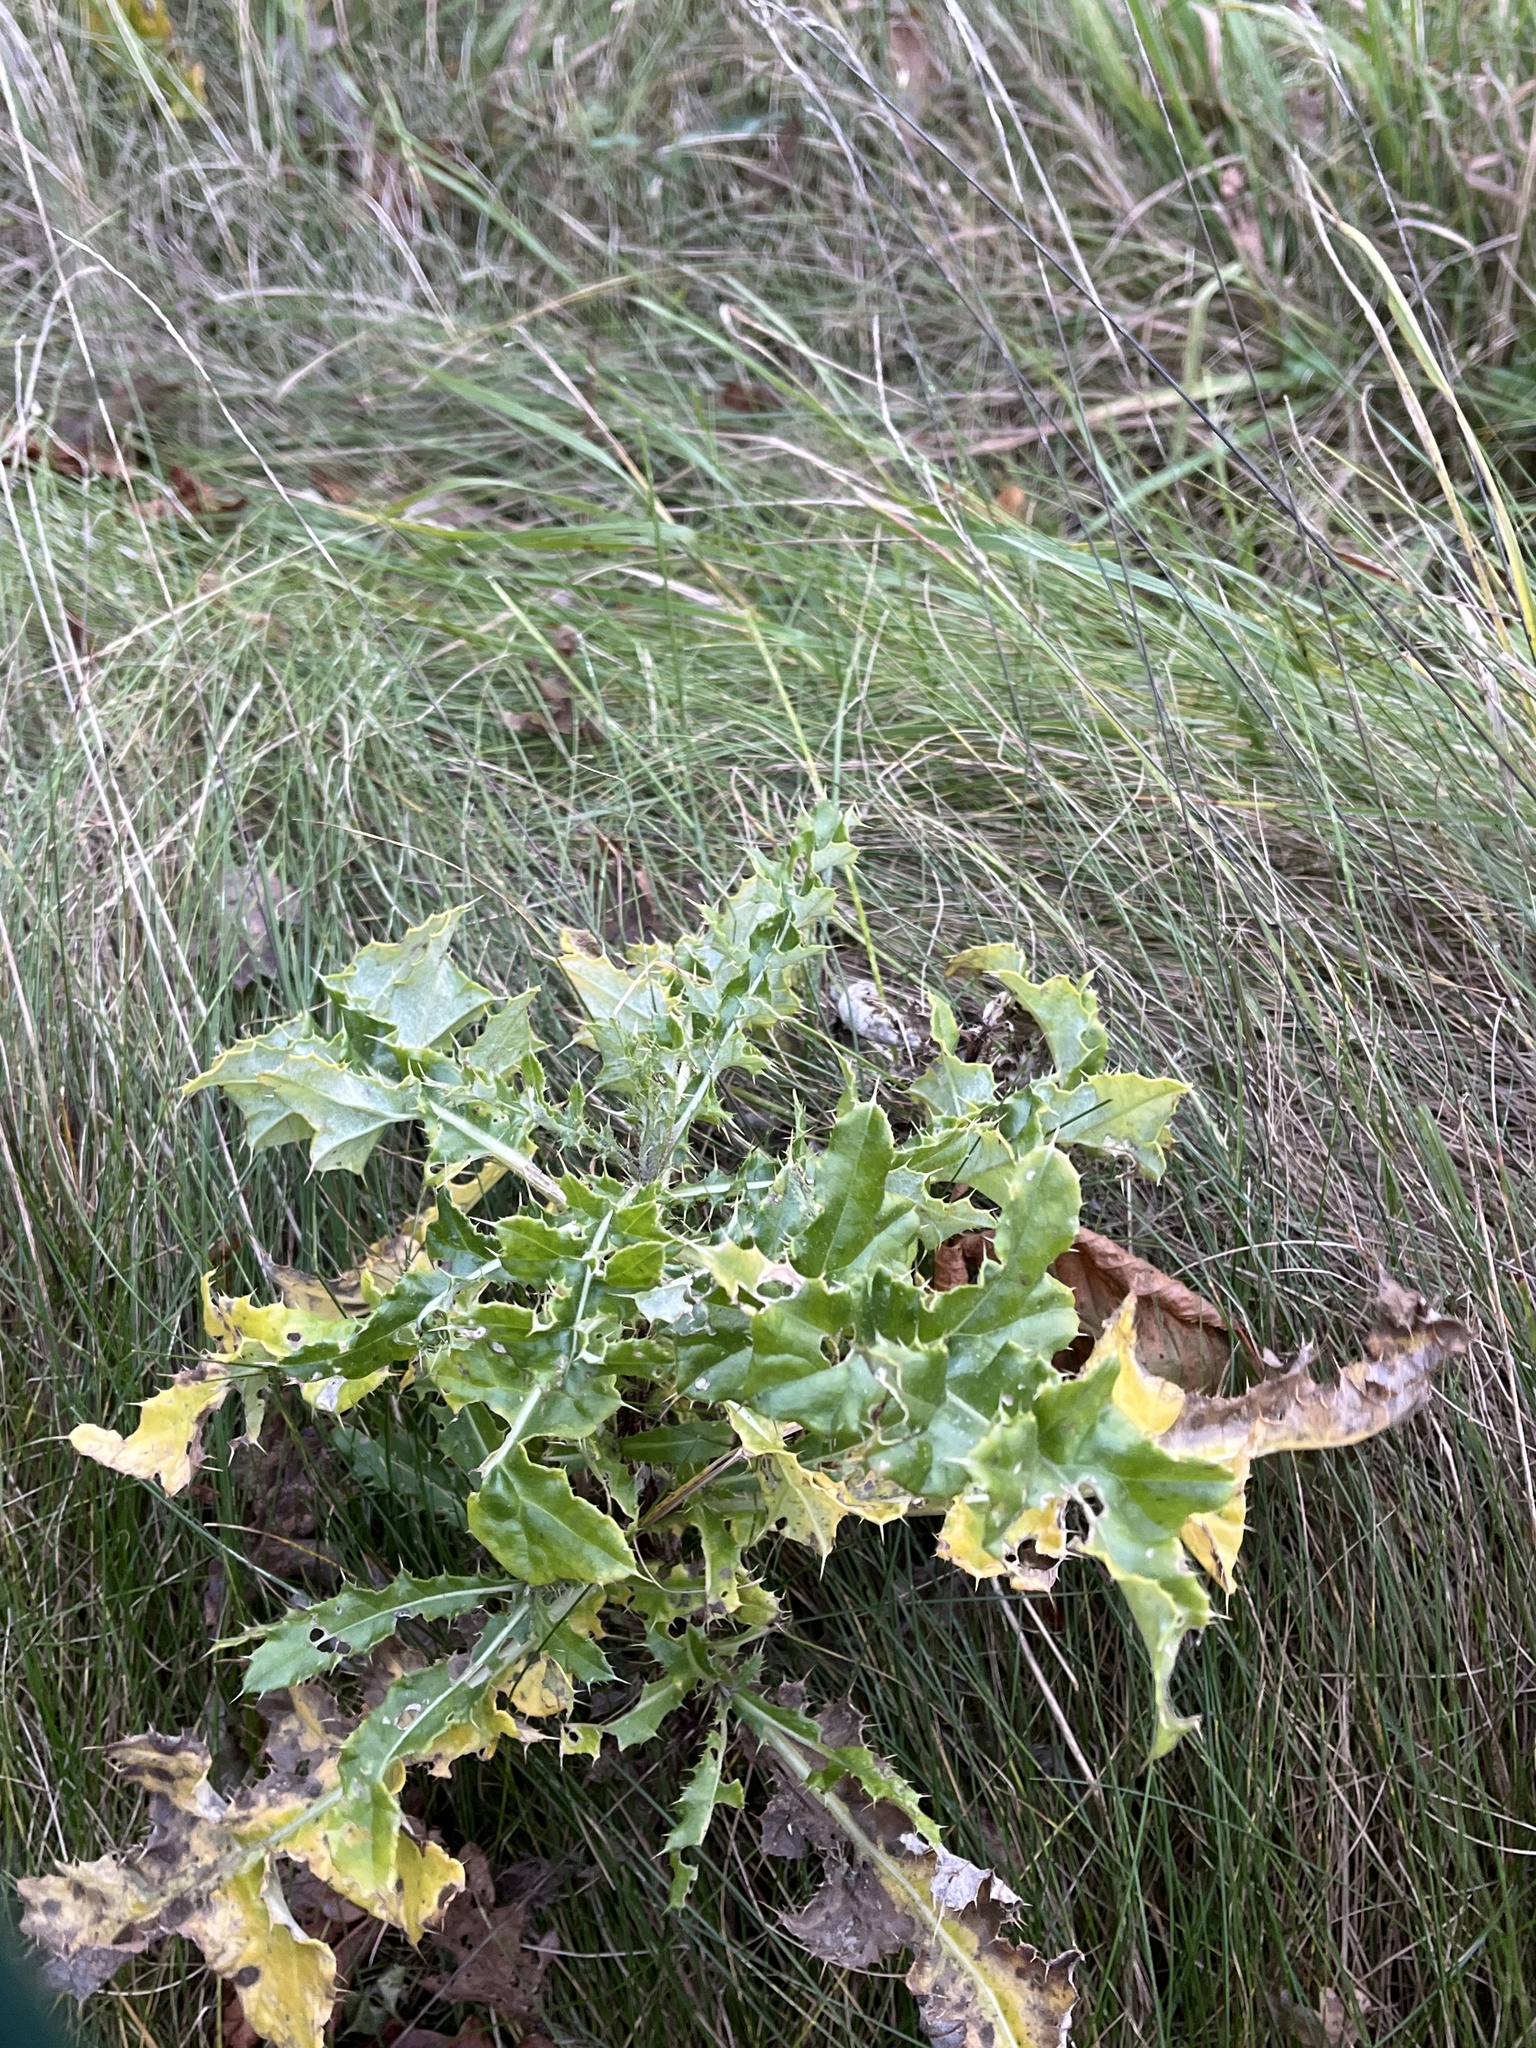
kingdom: Plantae
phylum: Tracheophyta
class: Magnoliopsida
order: Asterales
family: Asteraceae
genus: Cirsium
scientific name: Cirsium arvense
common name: Creeping thistle
